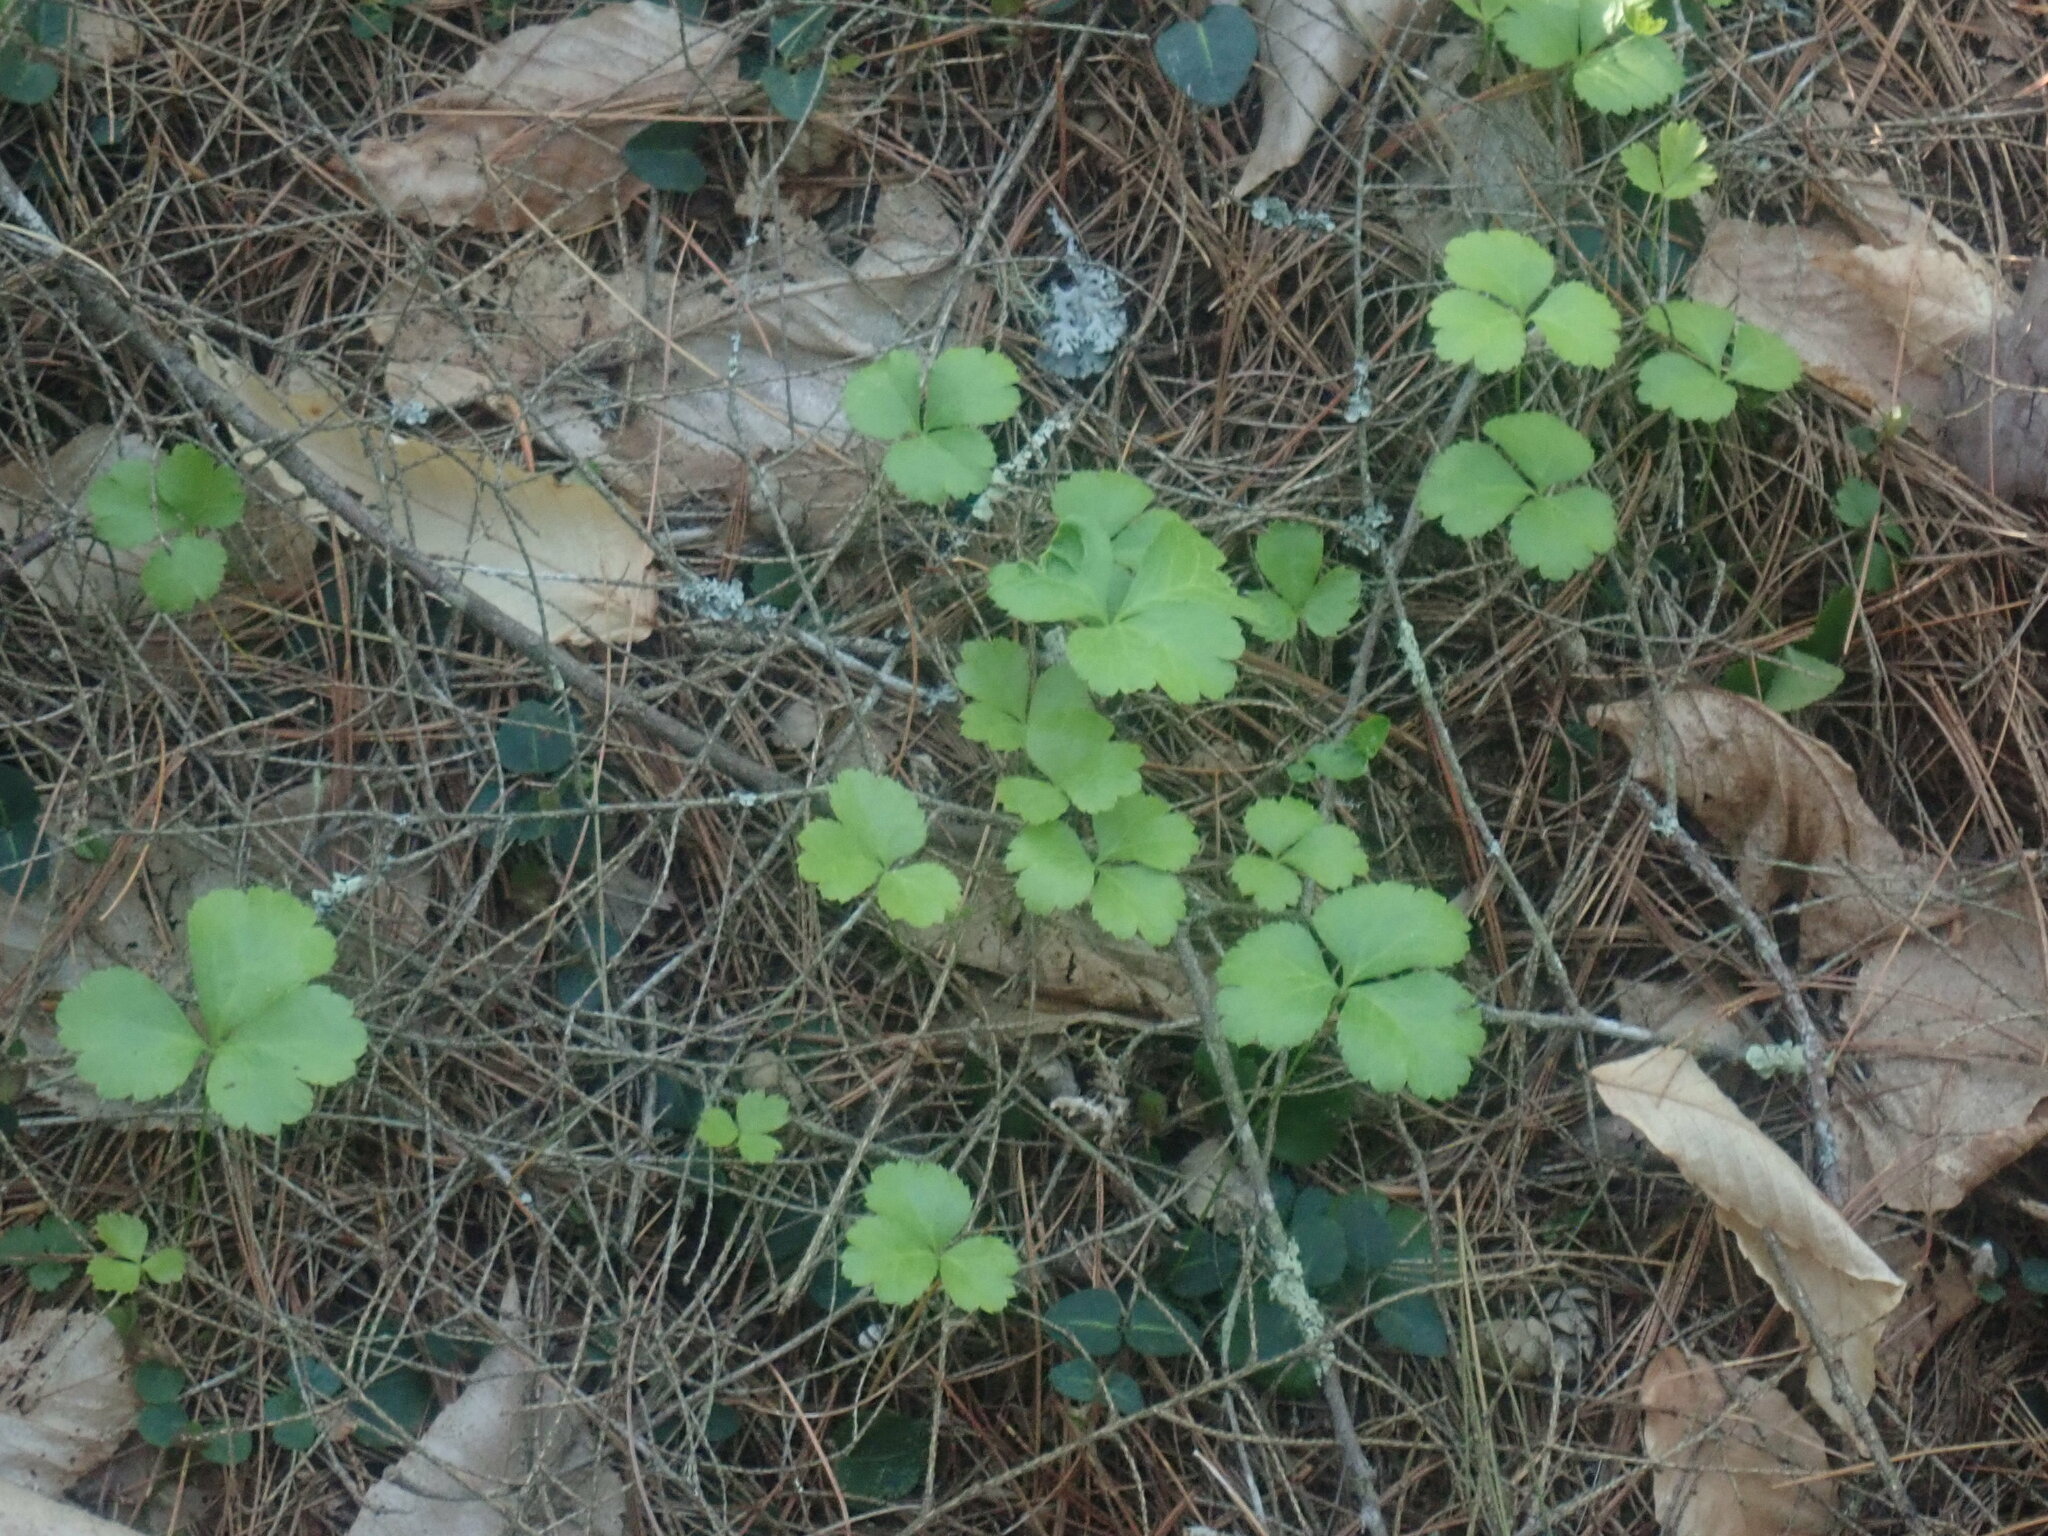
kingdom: Plantae
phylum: Tracheophyta
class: Magnoliopsida
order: Ranunculales
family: Ranunculaceae
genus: Coptis
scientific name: Coptis trifolia
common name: Canker-root
